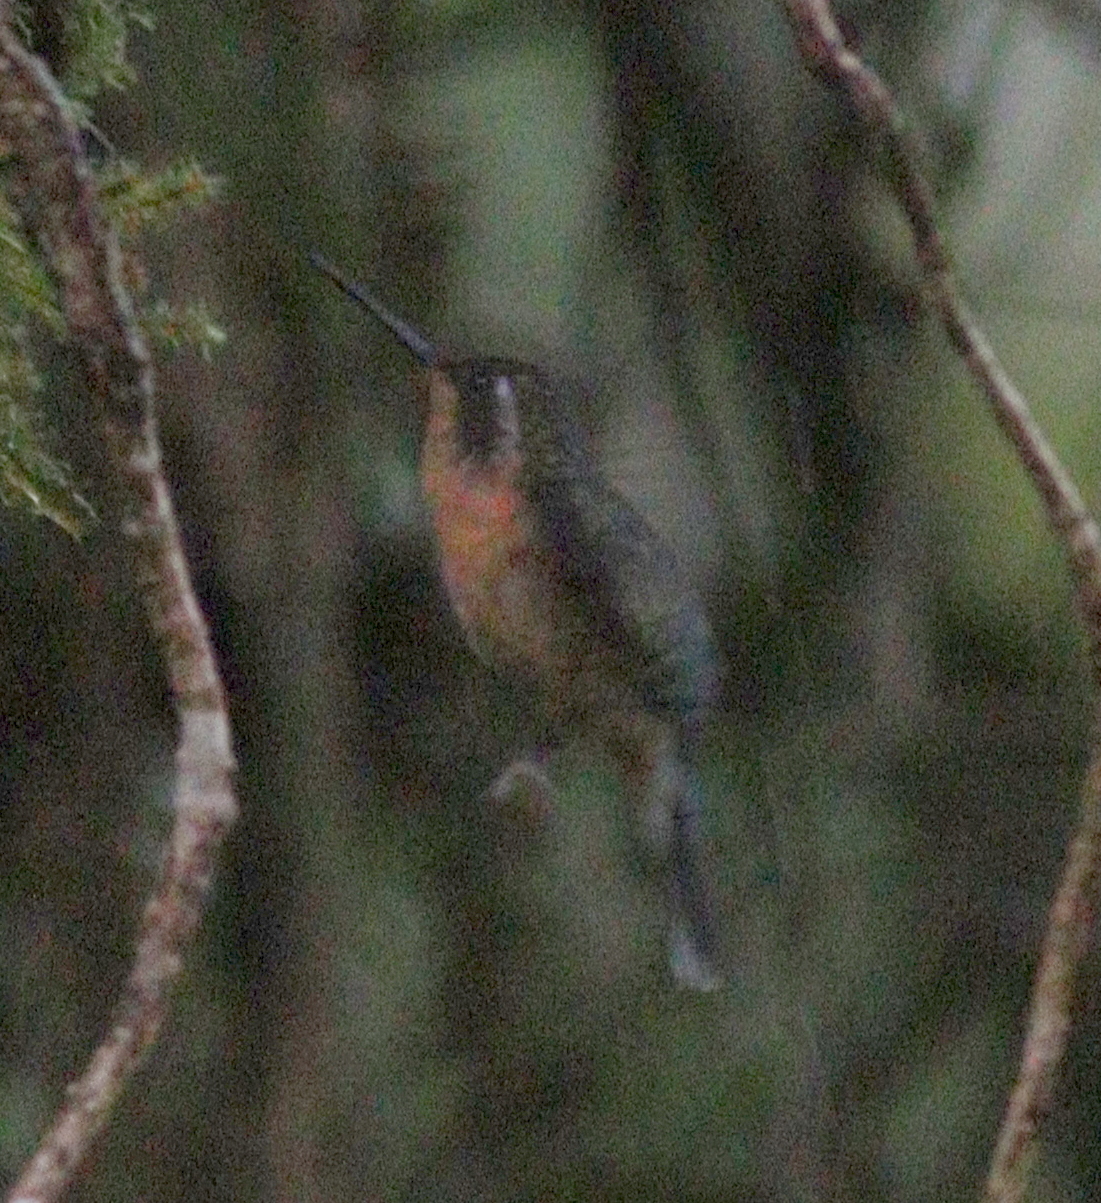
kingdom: Animalia
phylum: Chordata
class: Aves
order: Apodiformes
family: Trochilidae
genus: Lampornis
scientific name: Lampornis castaneoventris
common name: White-throated mountain-gem
